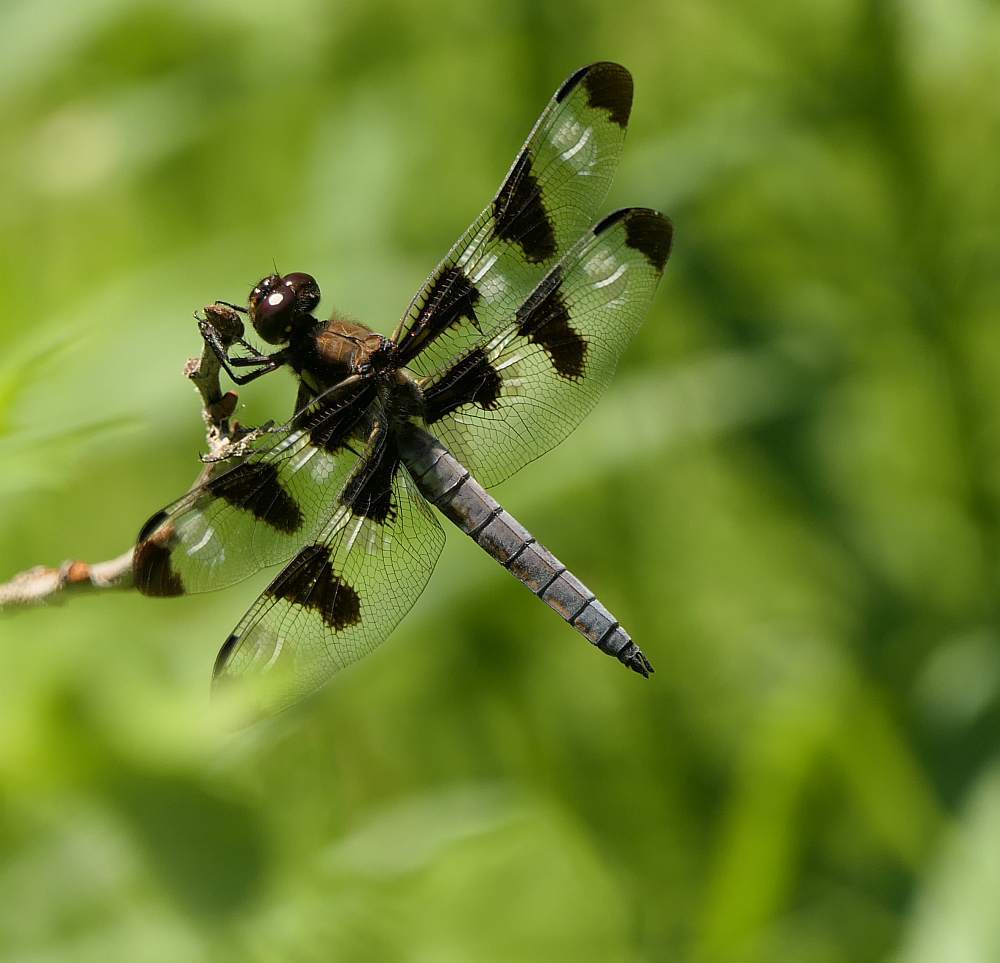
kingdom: Animalia
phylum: Arthropoda
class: Insecta
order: Odonata
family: Libellulidae
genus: Libellula
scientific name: Libellula pulchella
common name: Twelve-spotted skimmer
